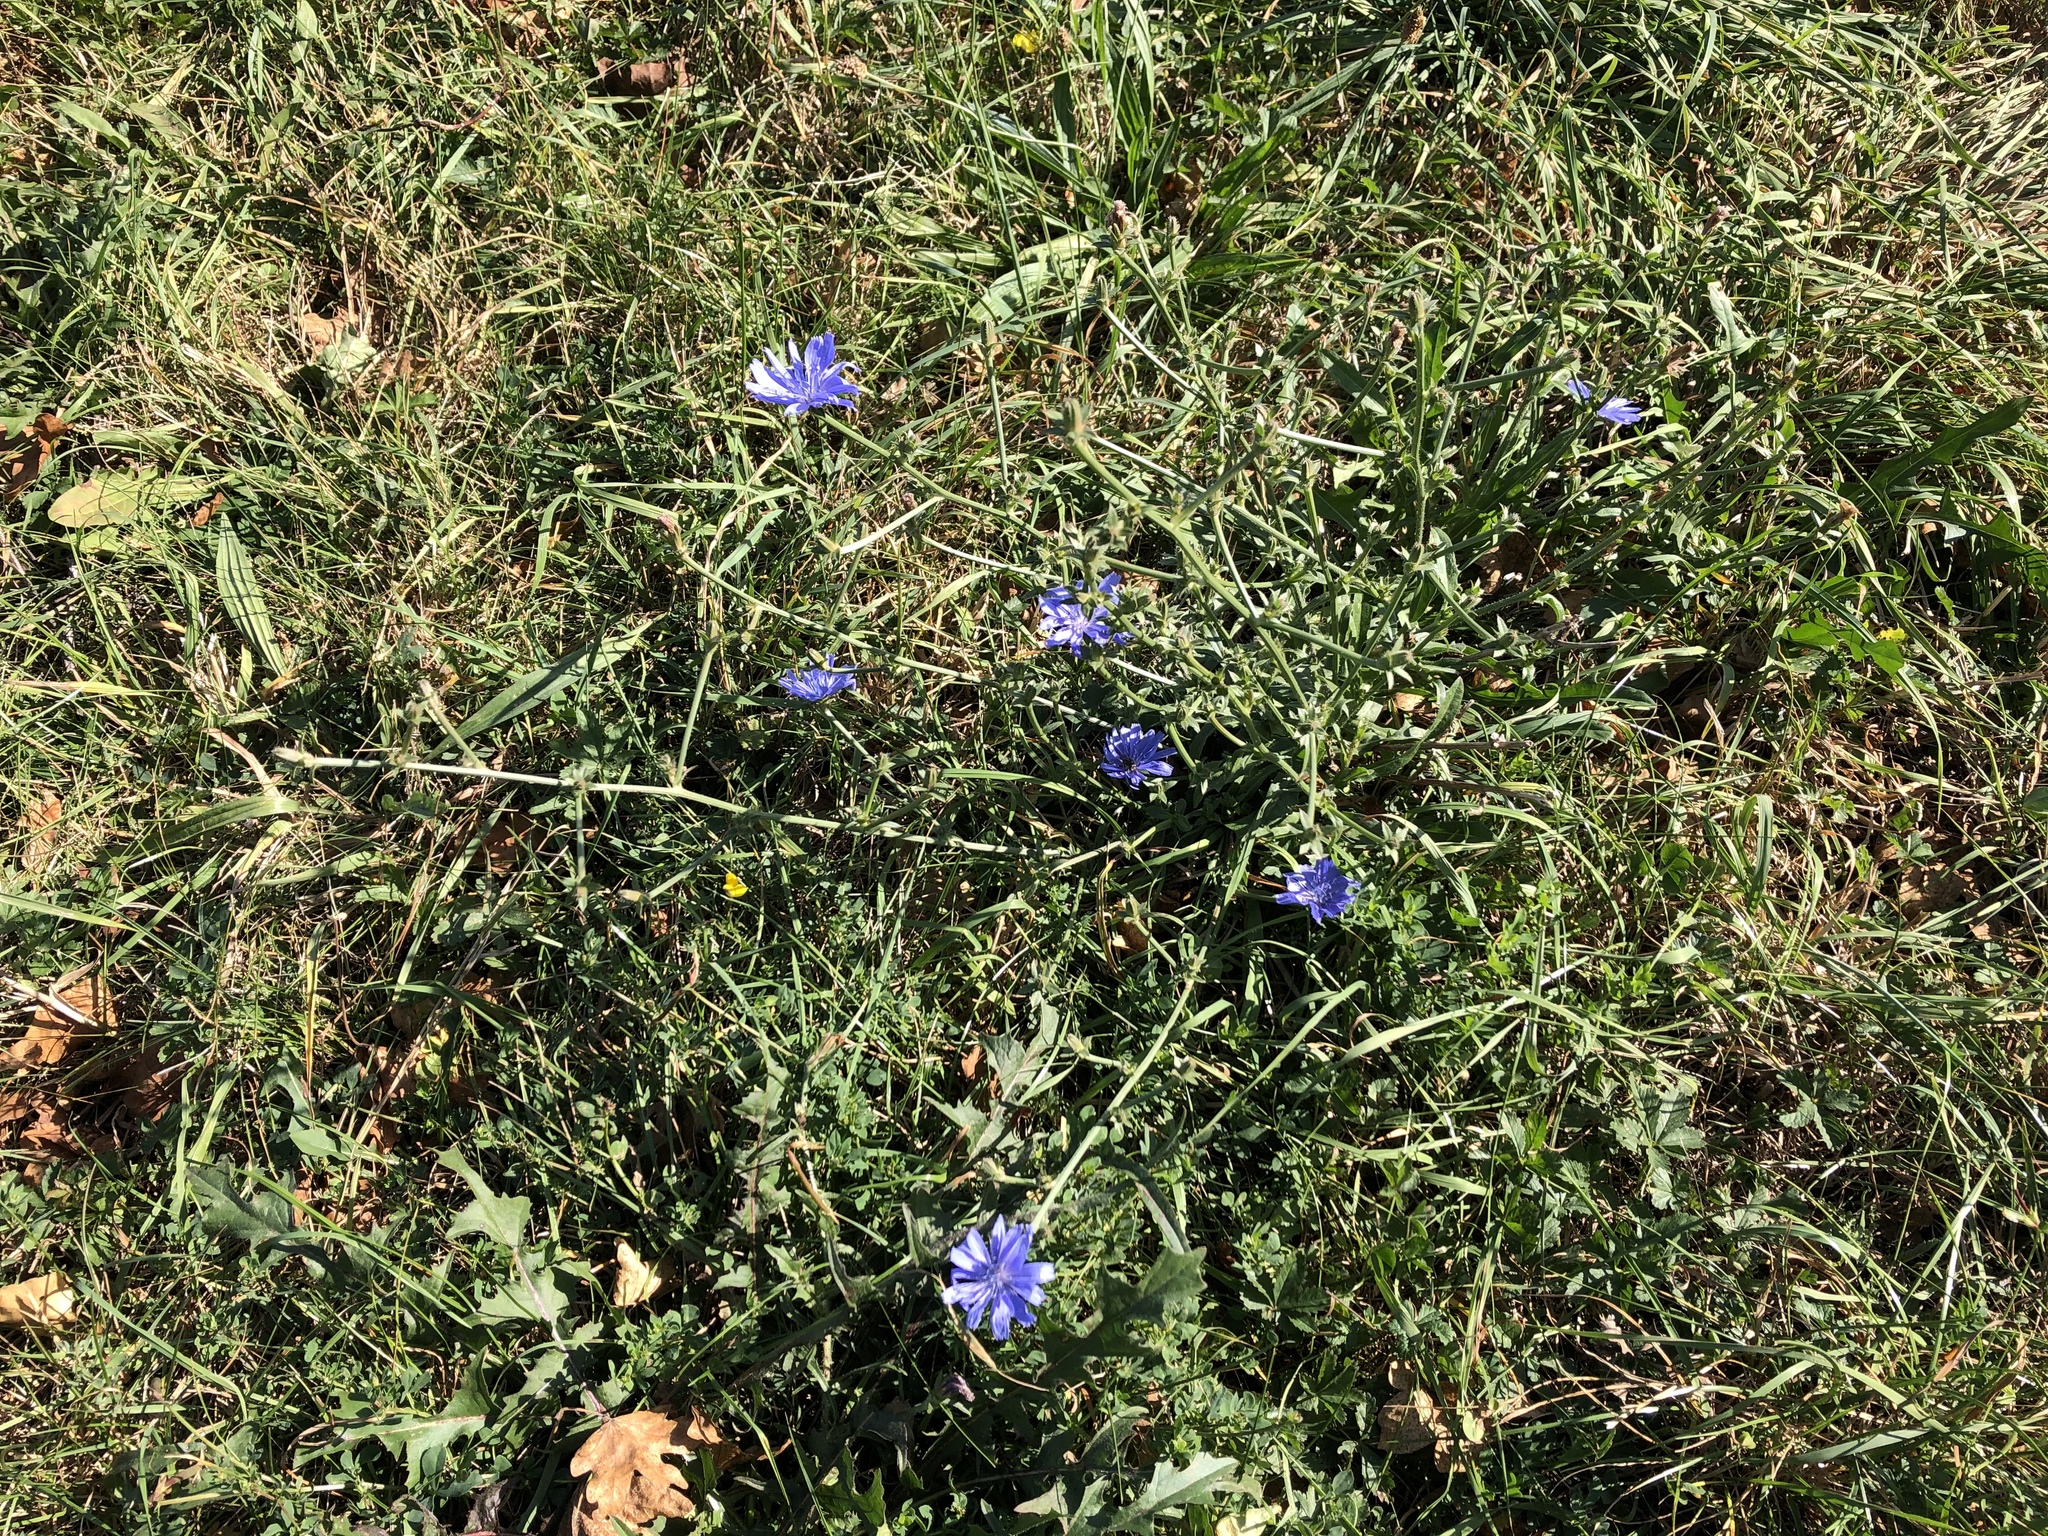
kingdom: Plantae
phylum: Tracheophyta
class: Magnoliopsida
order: Asterales
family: Asteraceae
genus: Cichorium
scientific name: Cichorium intybus
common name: Chicory
